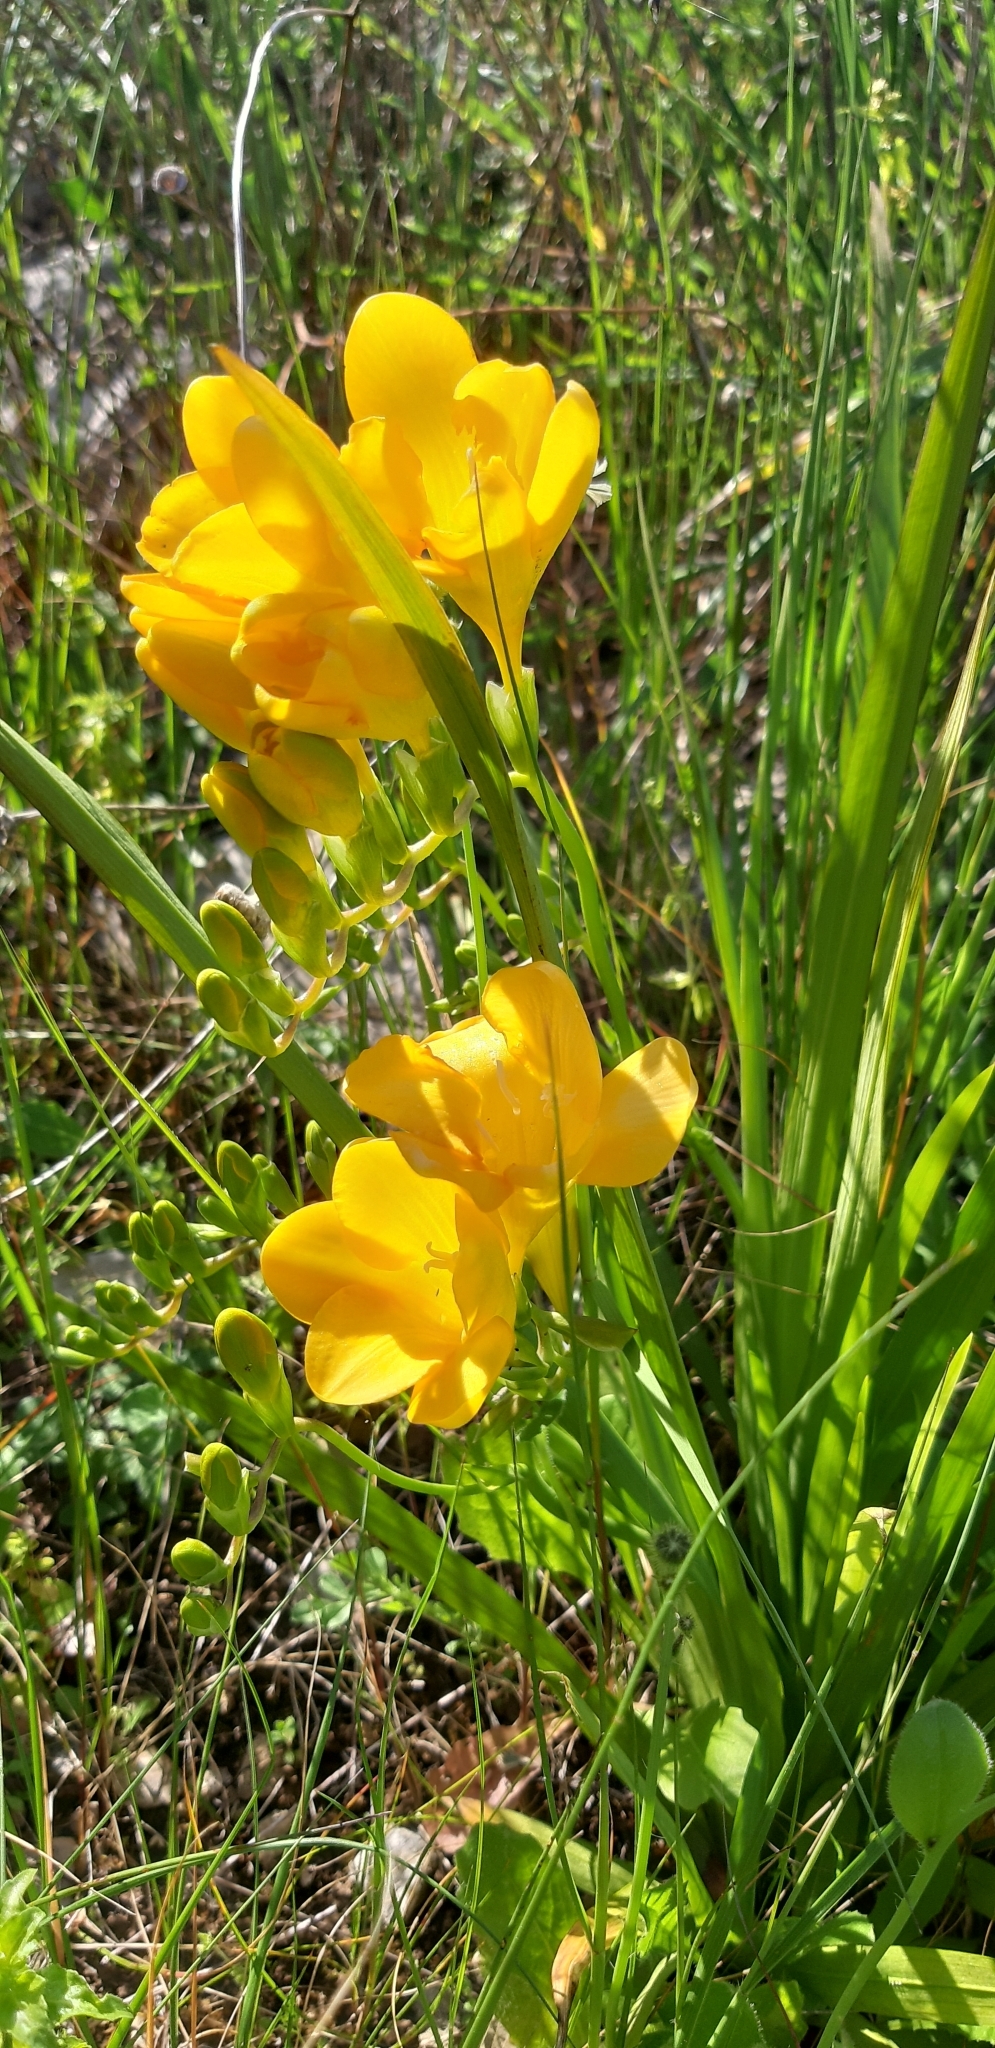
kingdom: Plantae
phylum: Tracheophyta
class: Liliopsida
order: Asparagales
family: Iridaceae
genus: Freesia
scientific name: Freesia kewensis bis
